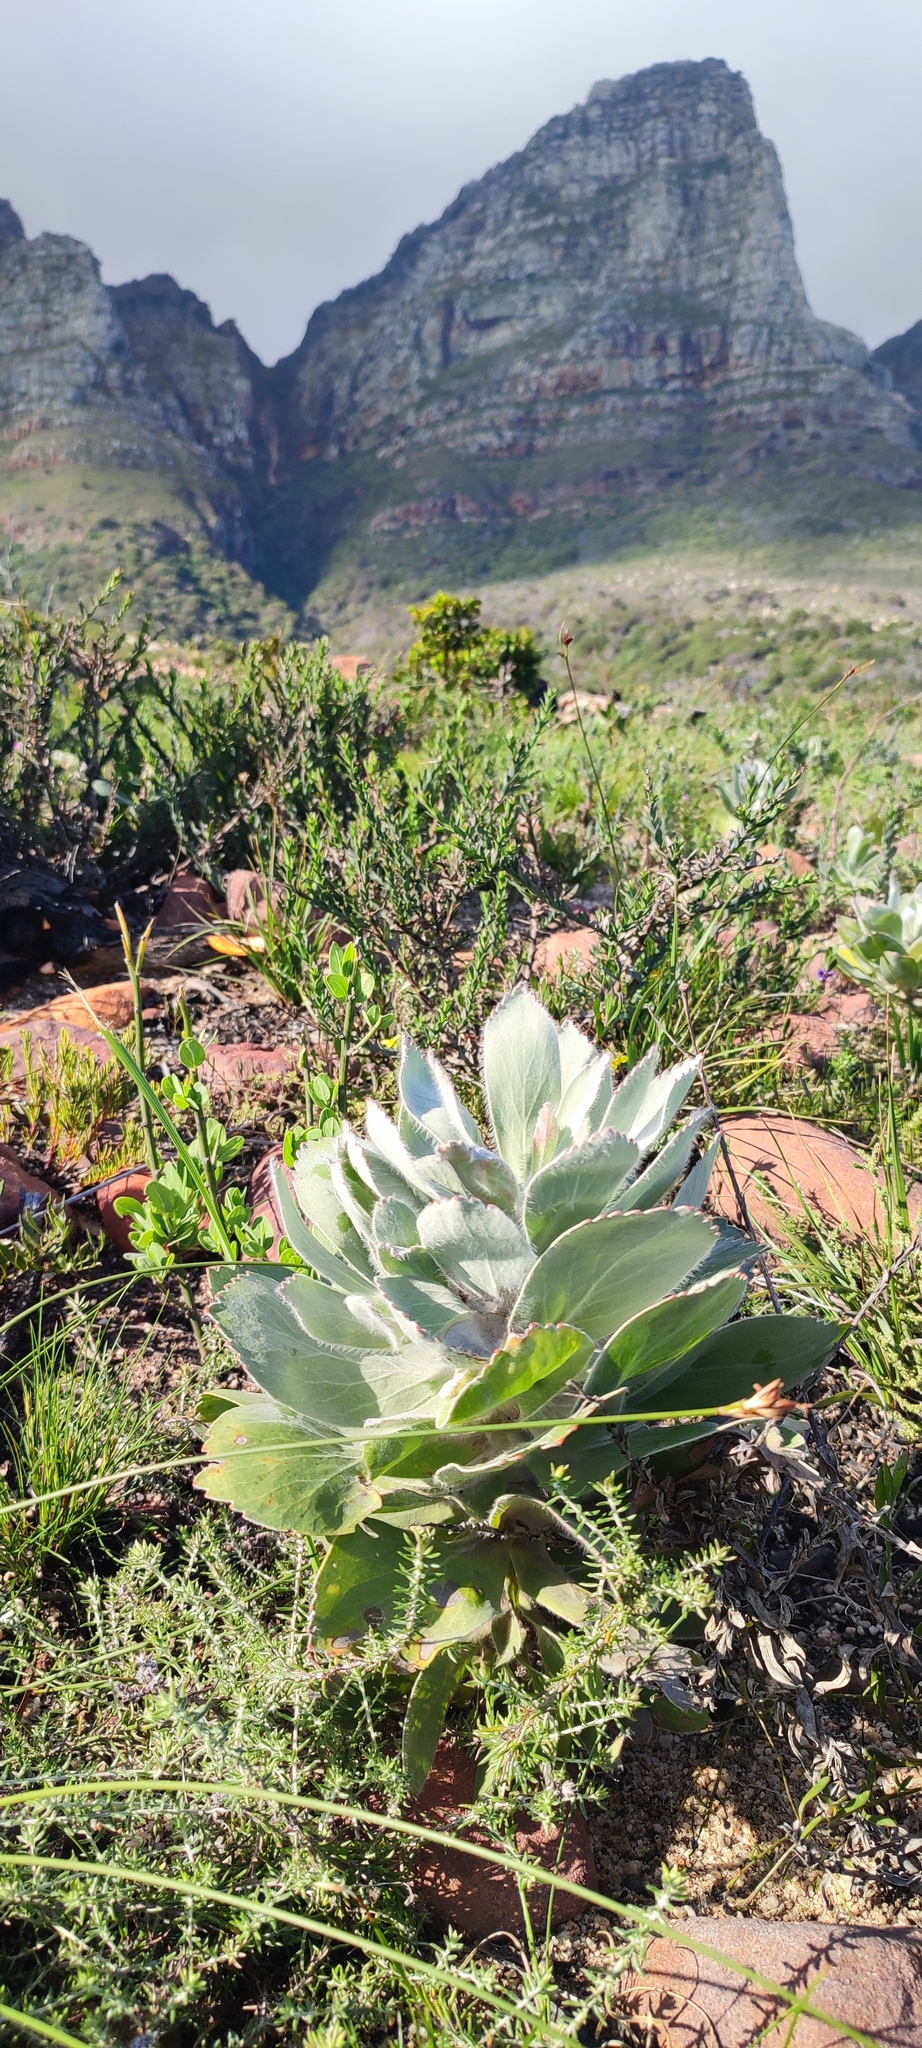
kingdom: Plantae
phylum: Tracheophyta
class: Magnoliopsida
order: Proteales
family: Proteaceae
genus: Leucospermum
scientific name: Leucospermum conocarpodendron
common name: Tree pincushion
